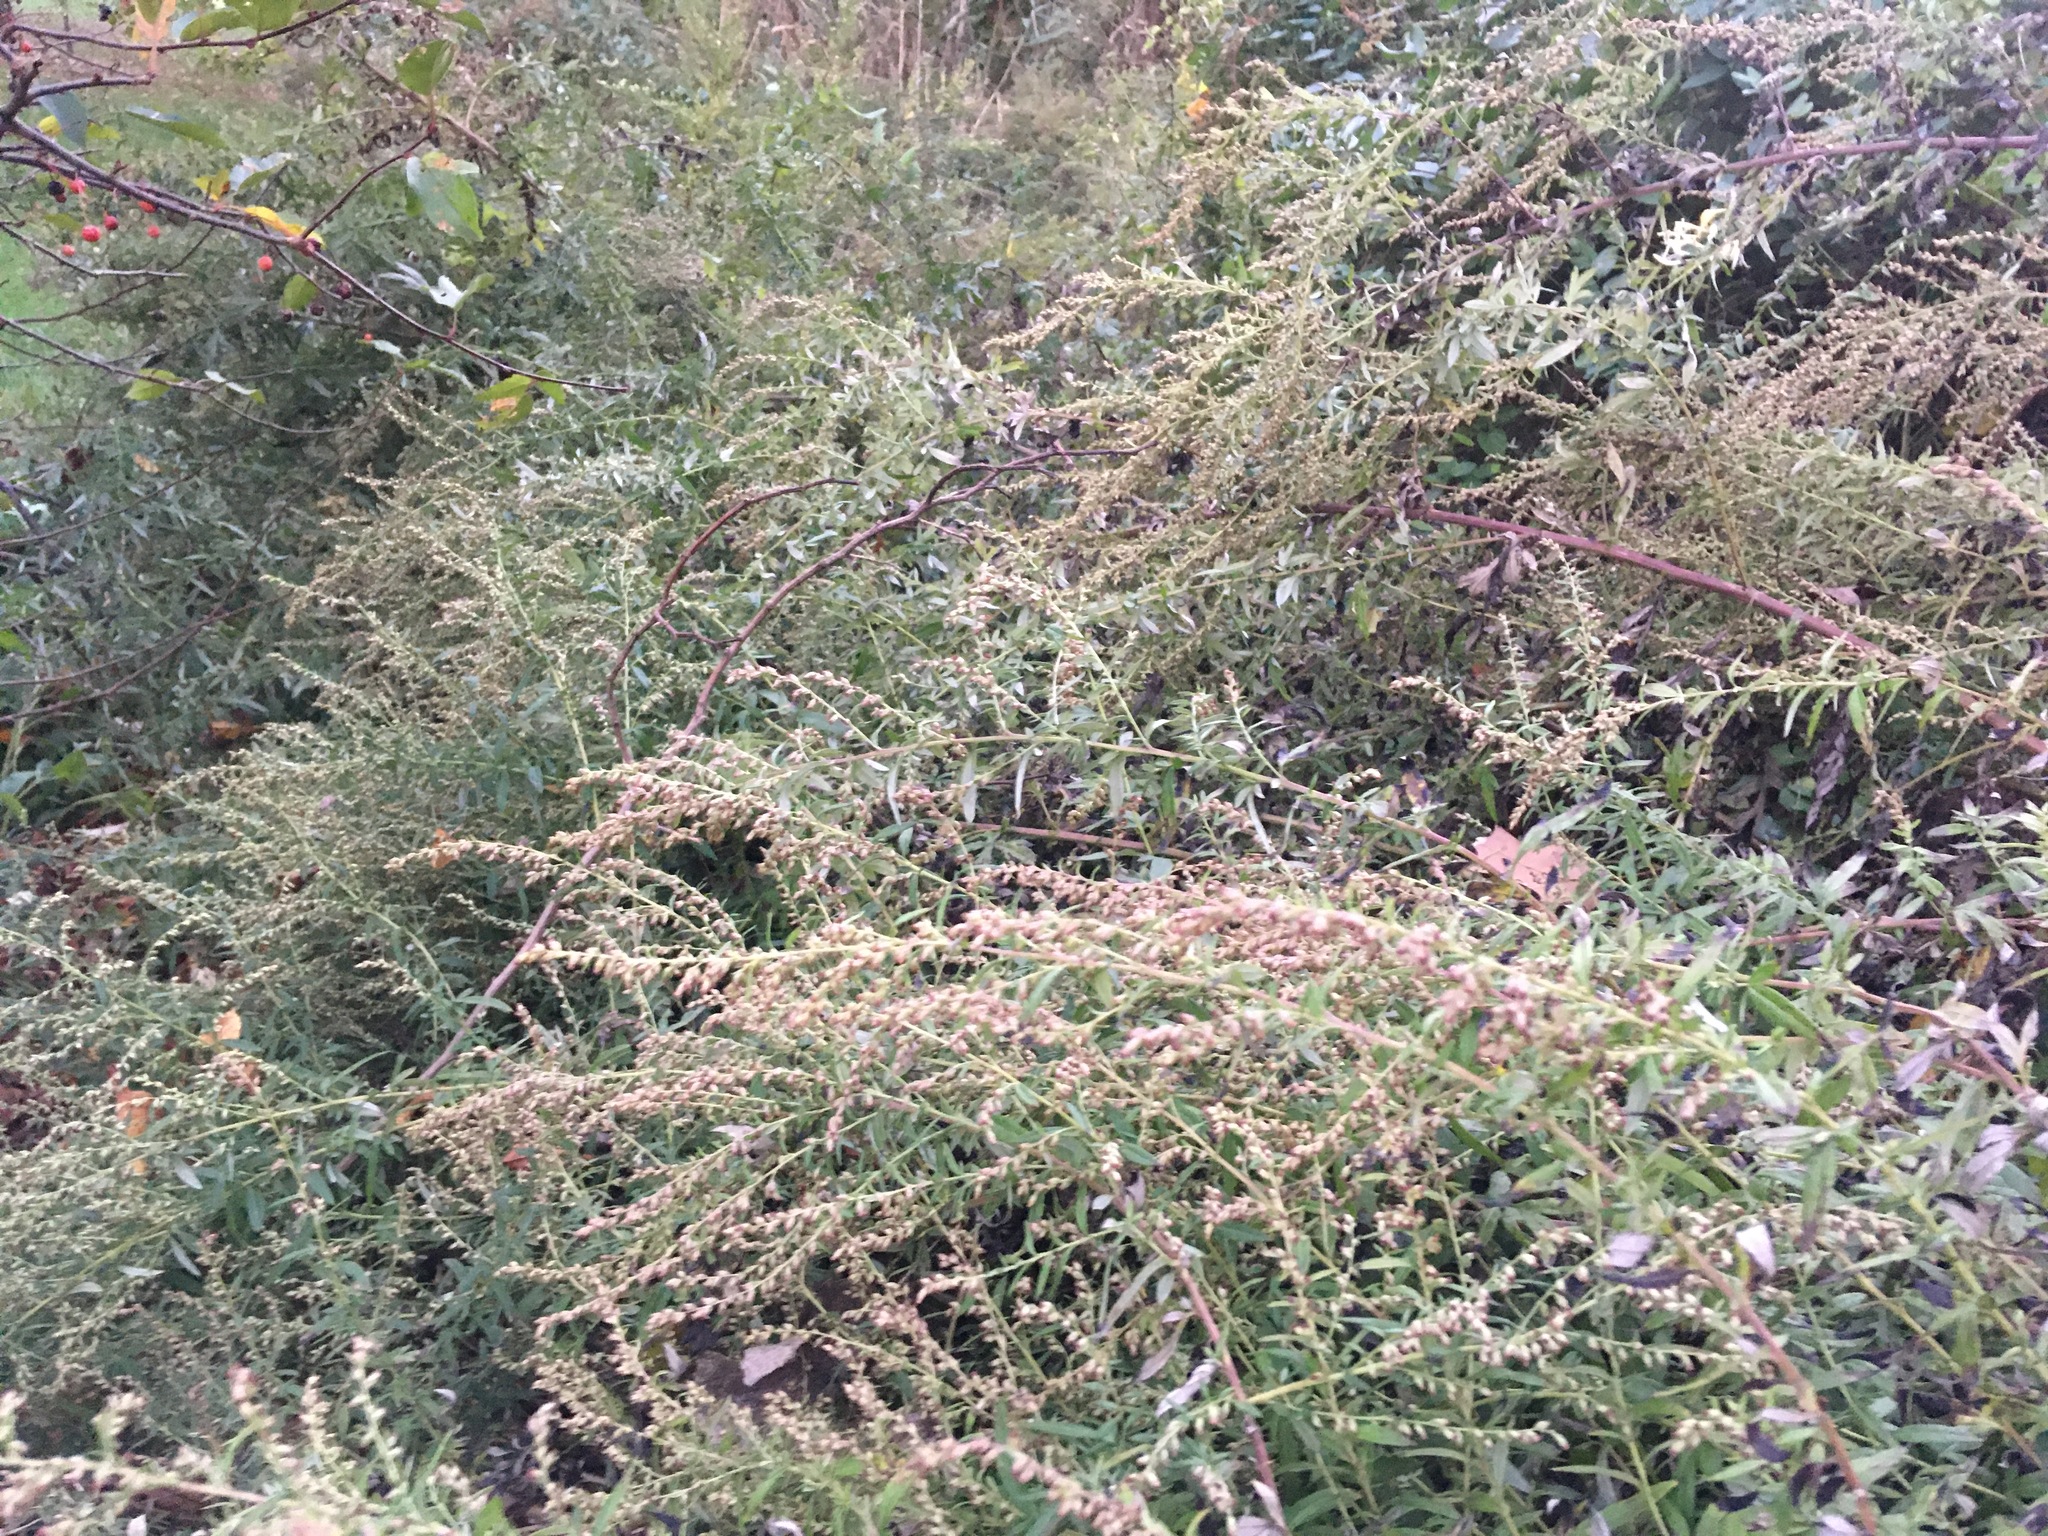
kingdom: Plantae
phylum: Tracheophyta
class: Magnoliopsida
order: Asterales
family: Asteraceae
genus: Artemisia
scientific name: Artemisia vulgaris
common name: Mugwort
